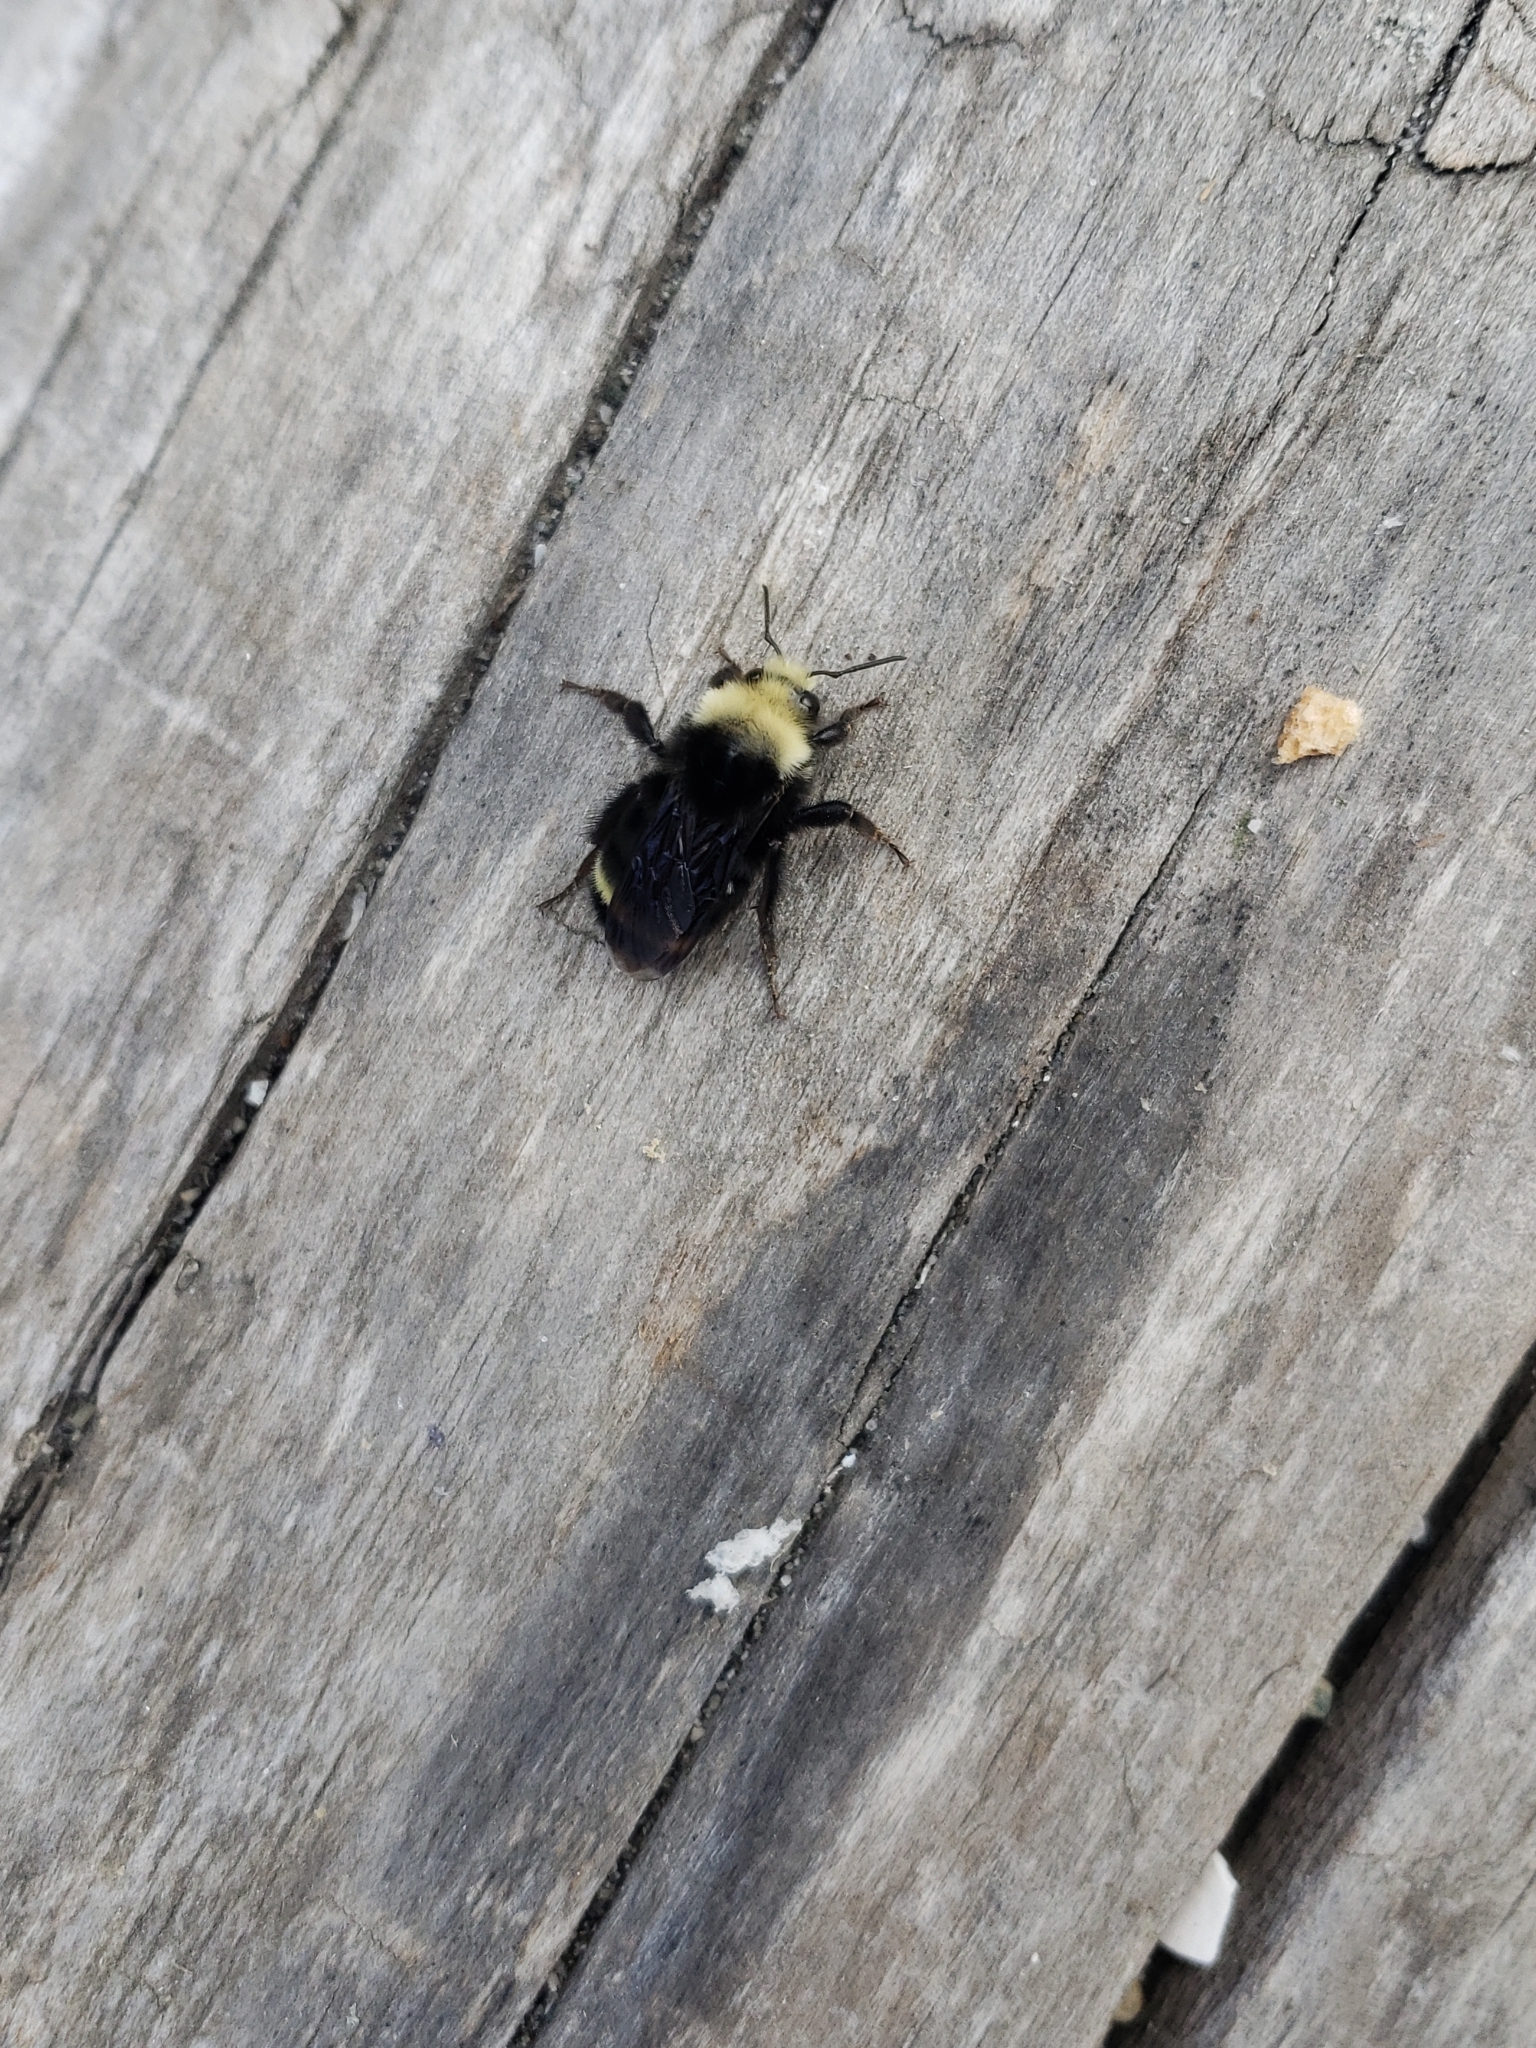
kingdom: Animalia
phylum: Arthropoda
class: Insecta
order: Hymenoptera
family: Apidae
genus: Bombus
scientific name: Bombus vosnesenskii
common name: Vosnesensky bumble bee
